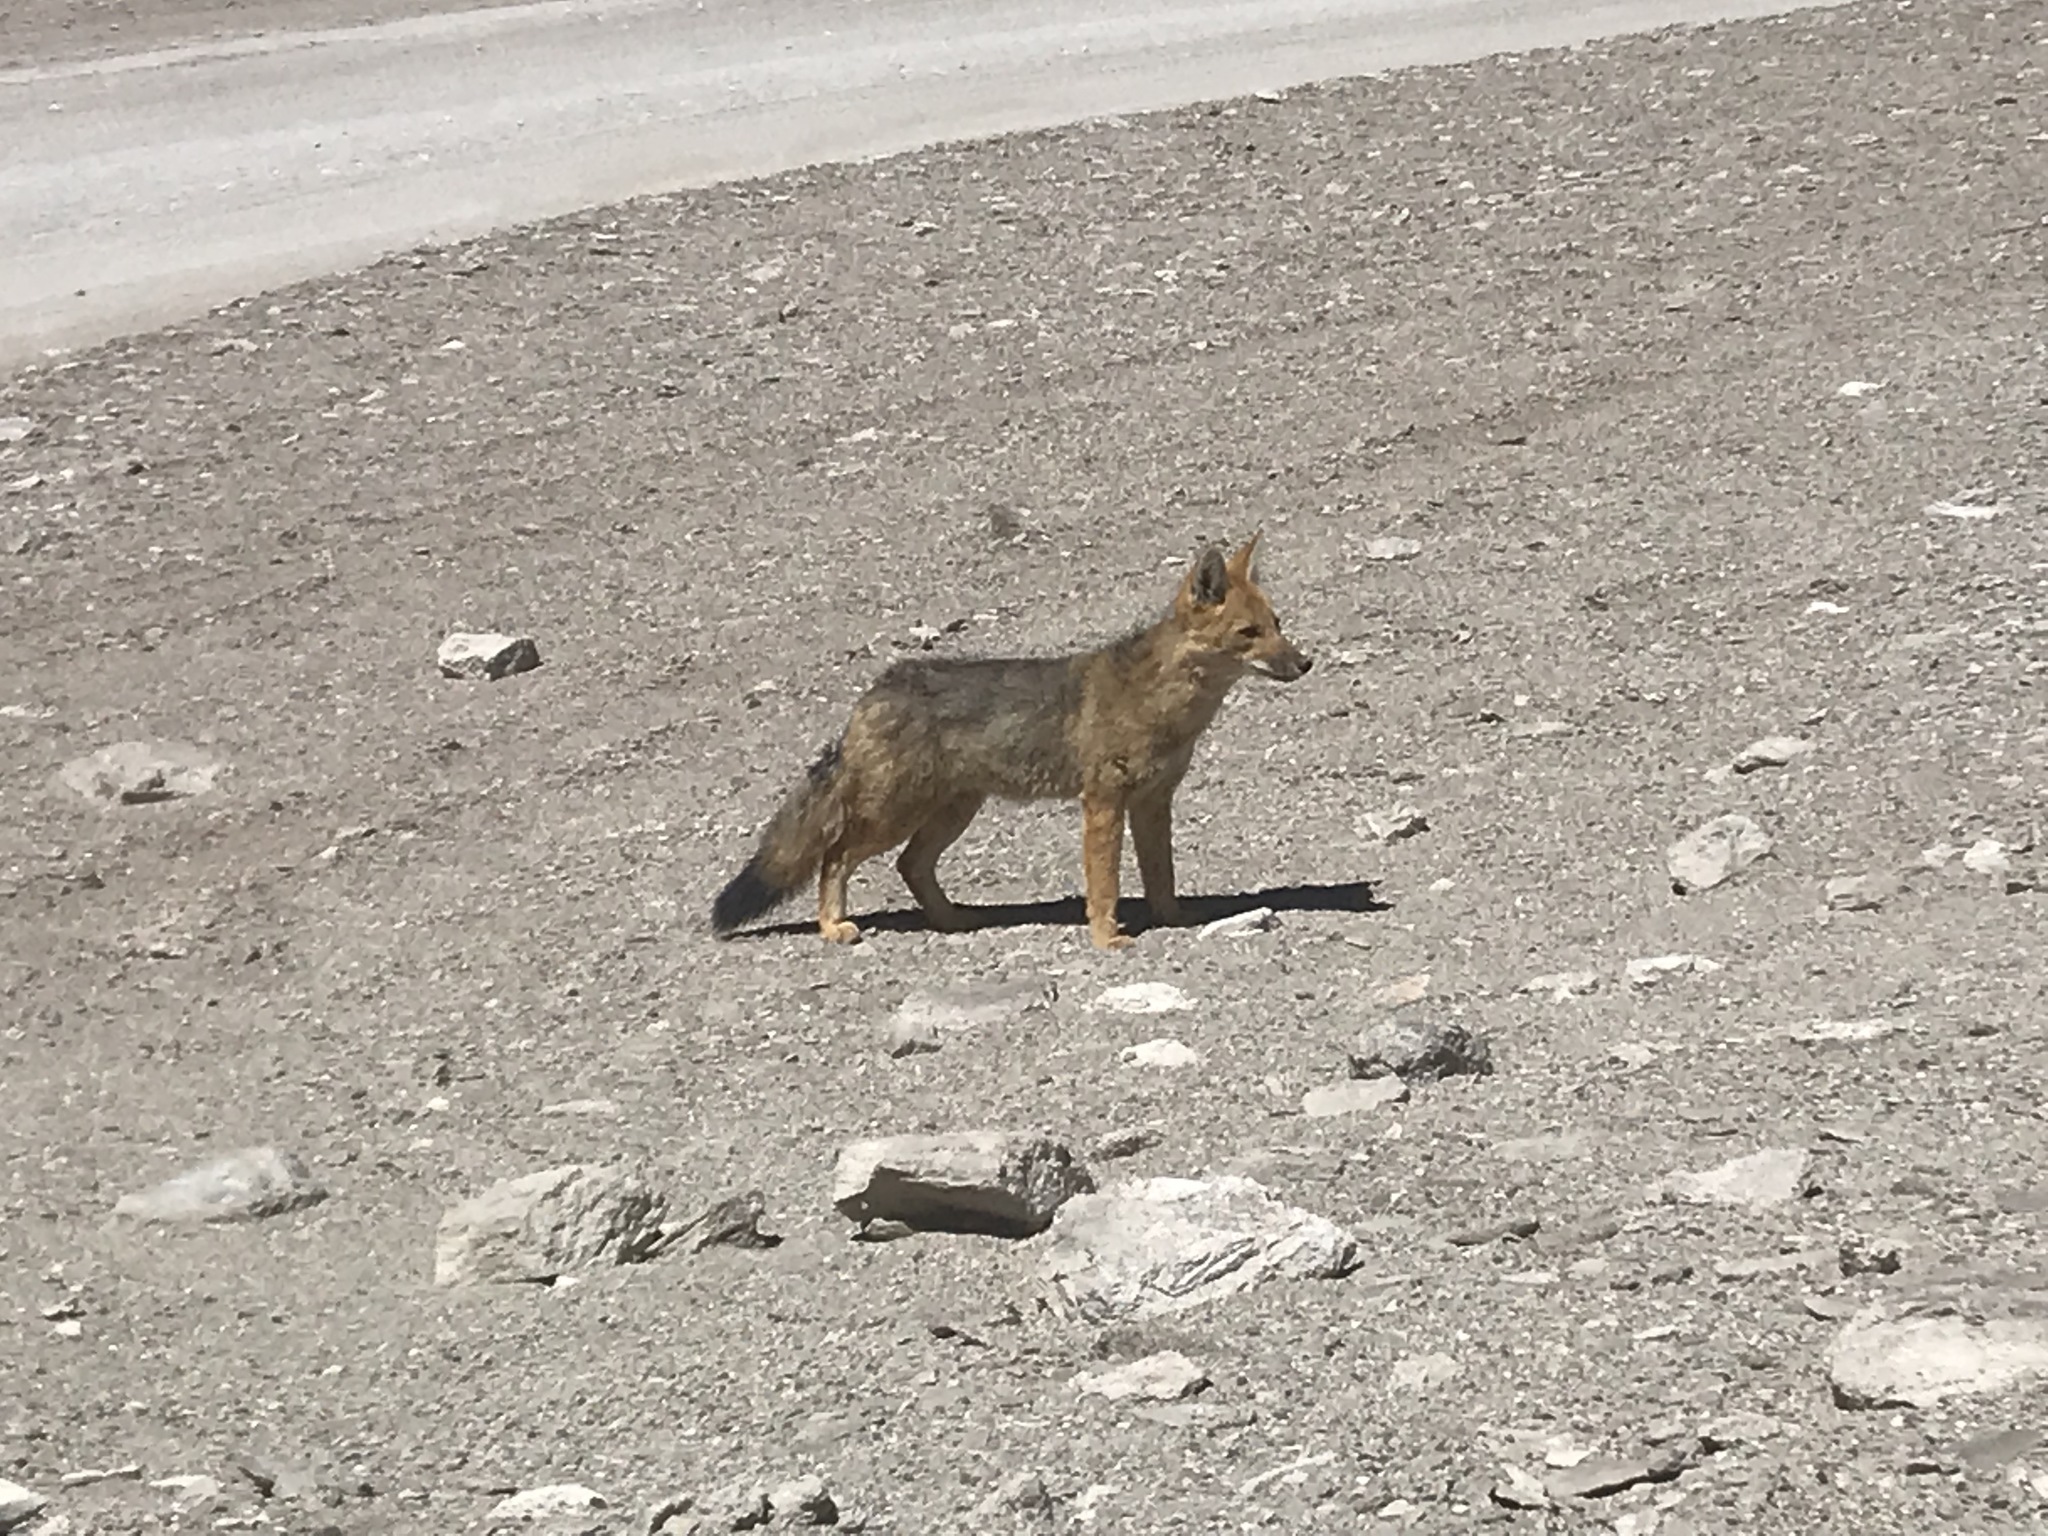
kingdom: Animalia
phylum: Chordata
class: Mammalia
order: Carnivora
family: Canidae
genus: Lycalopex
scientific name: Lycalopex culpaeus
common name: Culpeo
